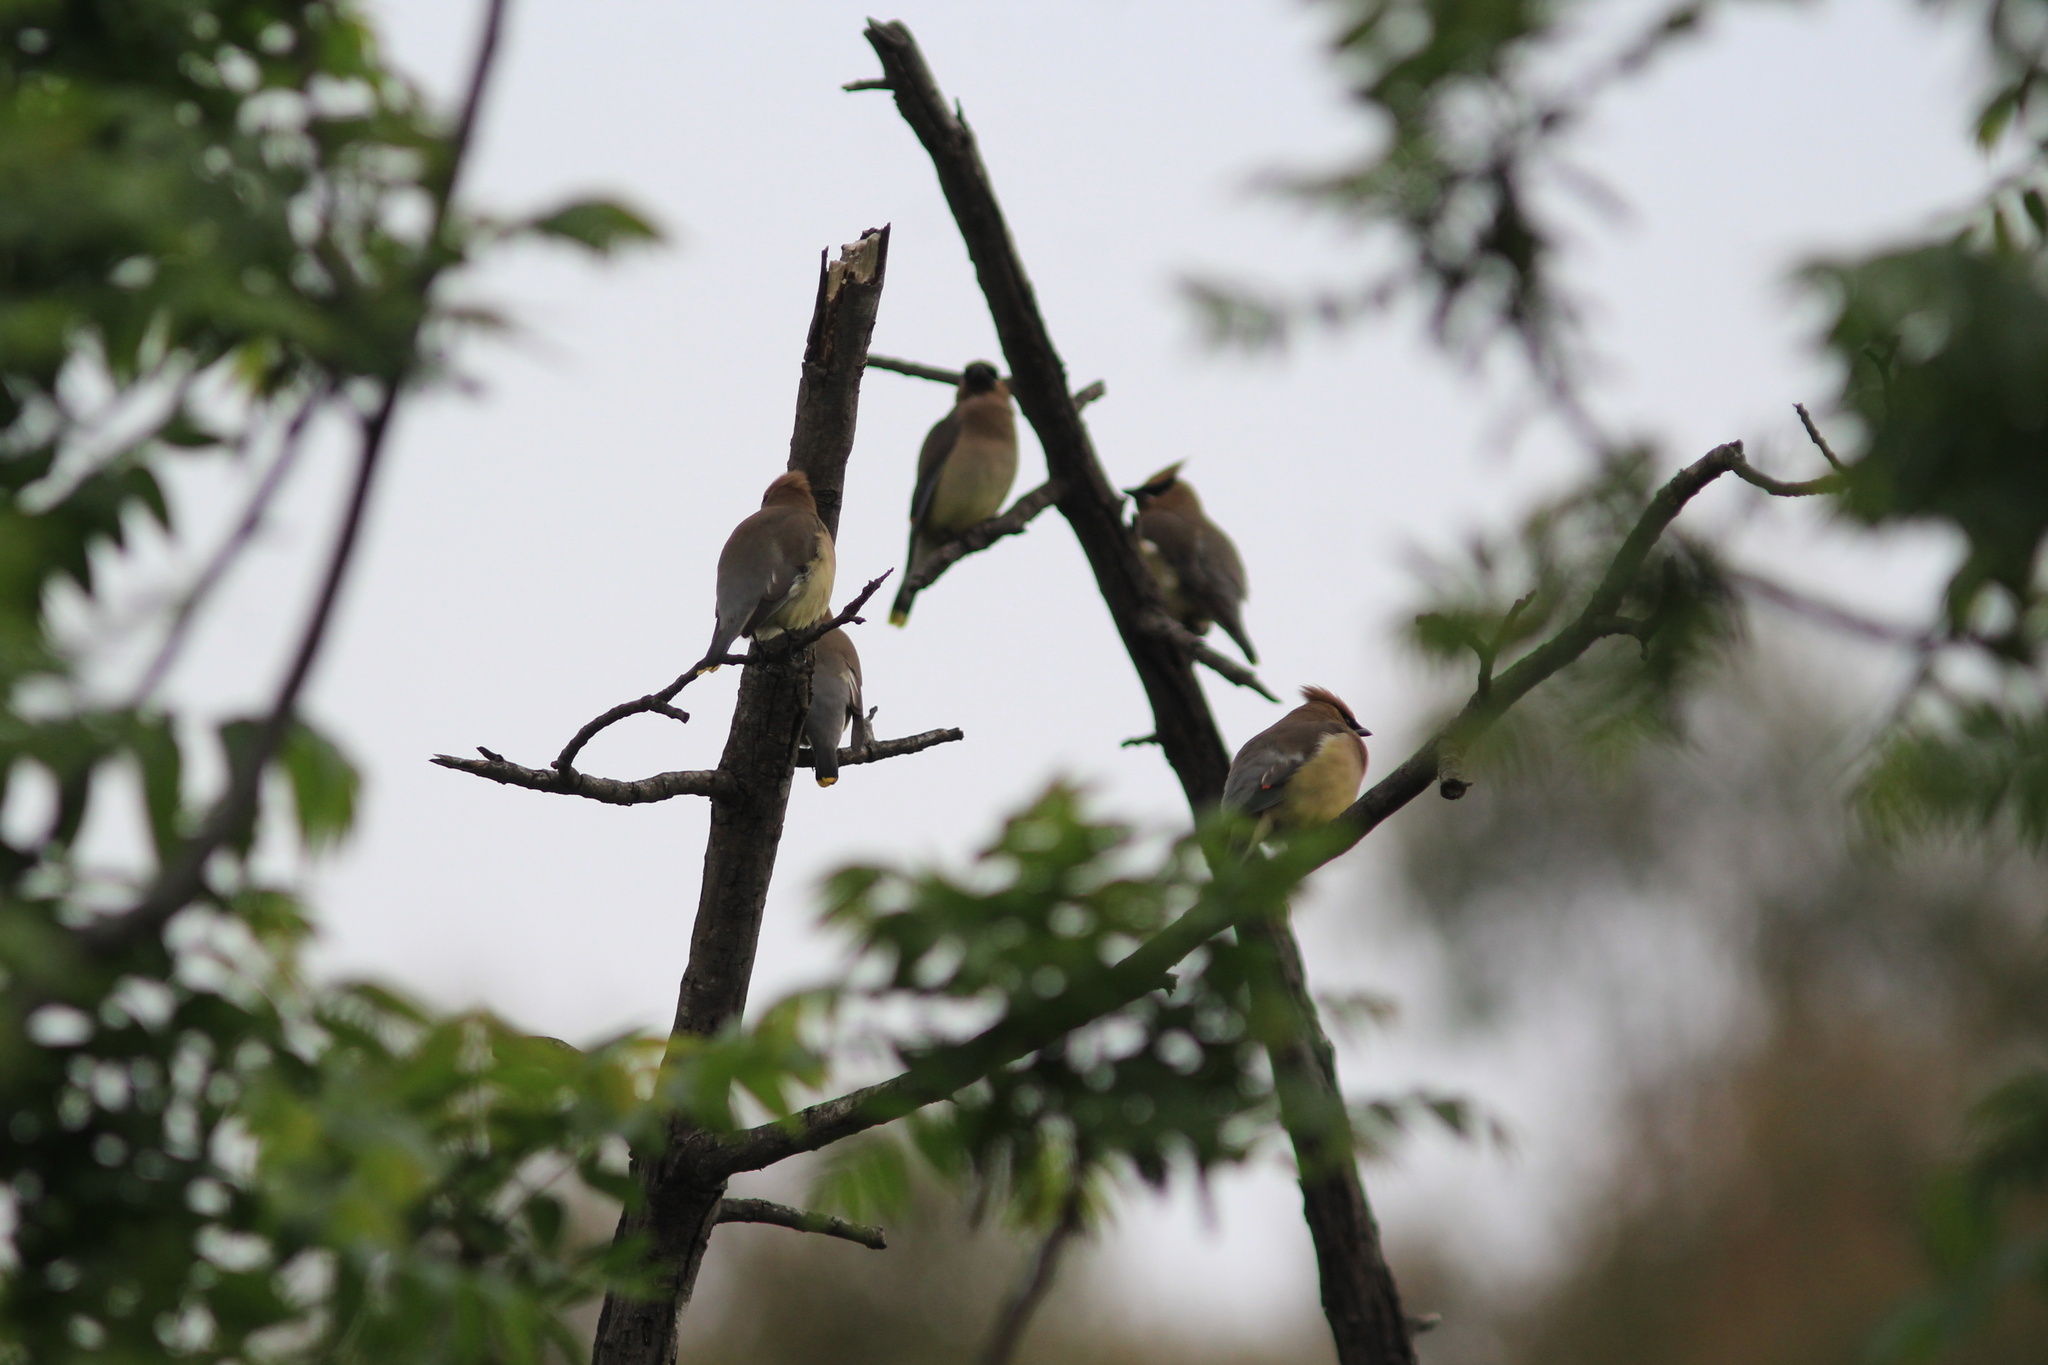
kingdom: Animalia
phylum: Chordata
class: Aves
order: Passeriformes
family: Bombycillidae
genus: Bombycilla
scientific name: Bombycilla cedrorum
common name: Cedar waxwing
